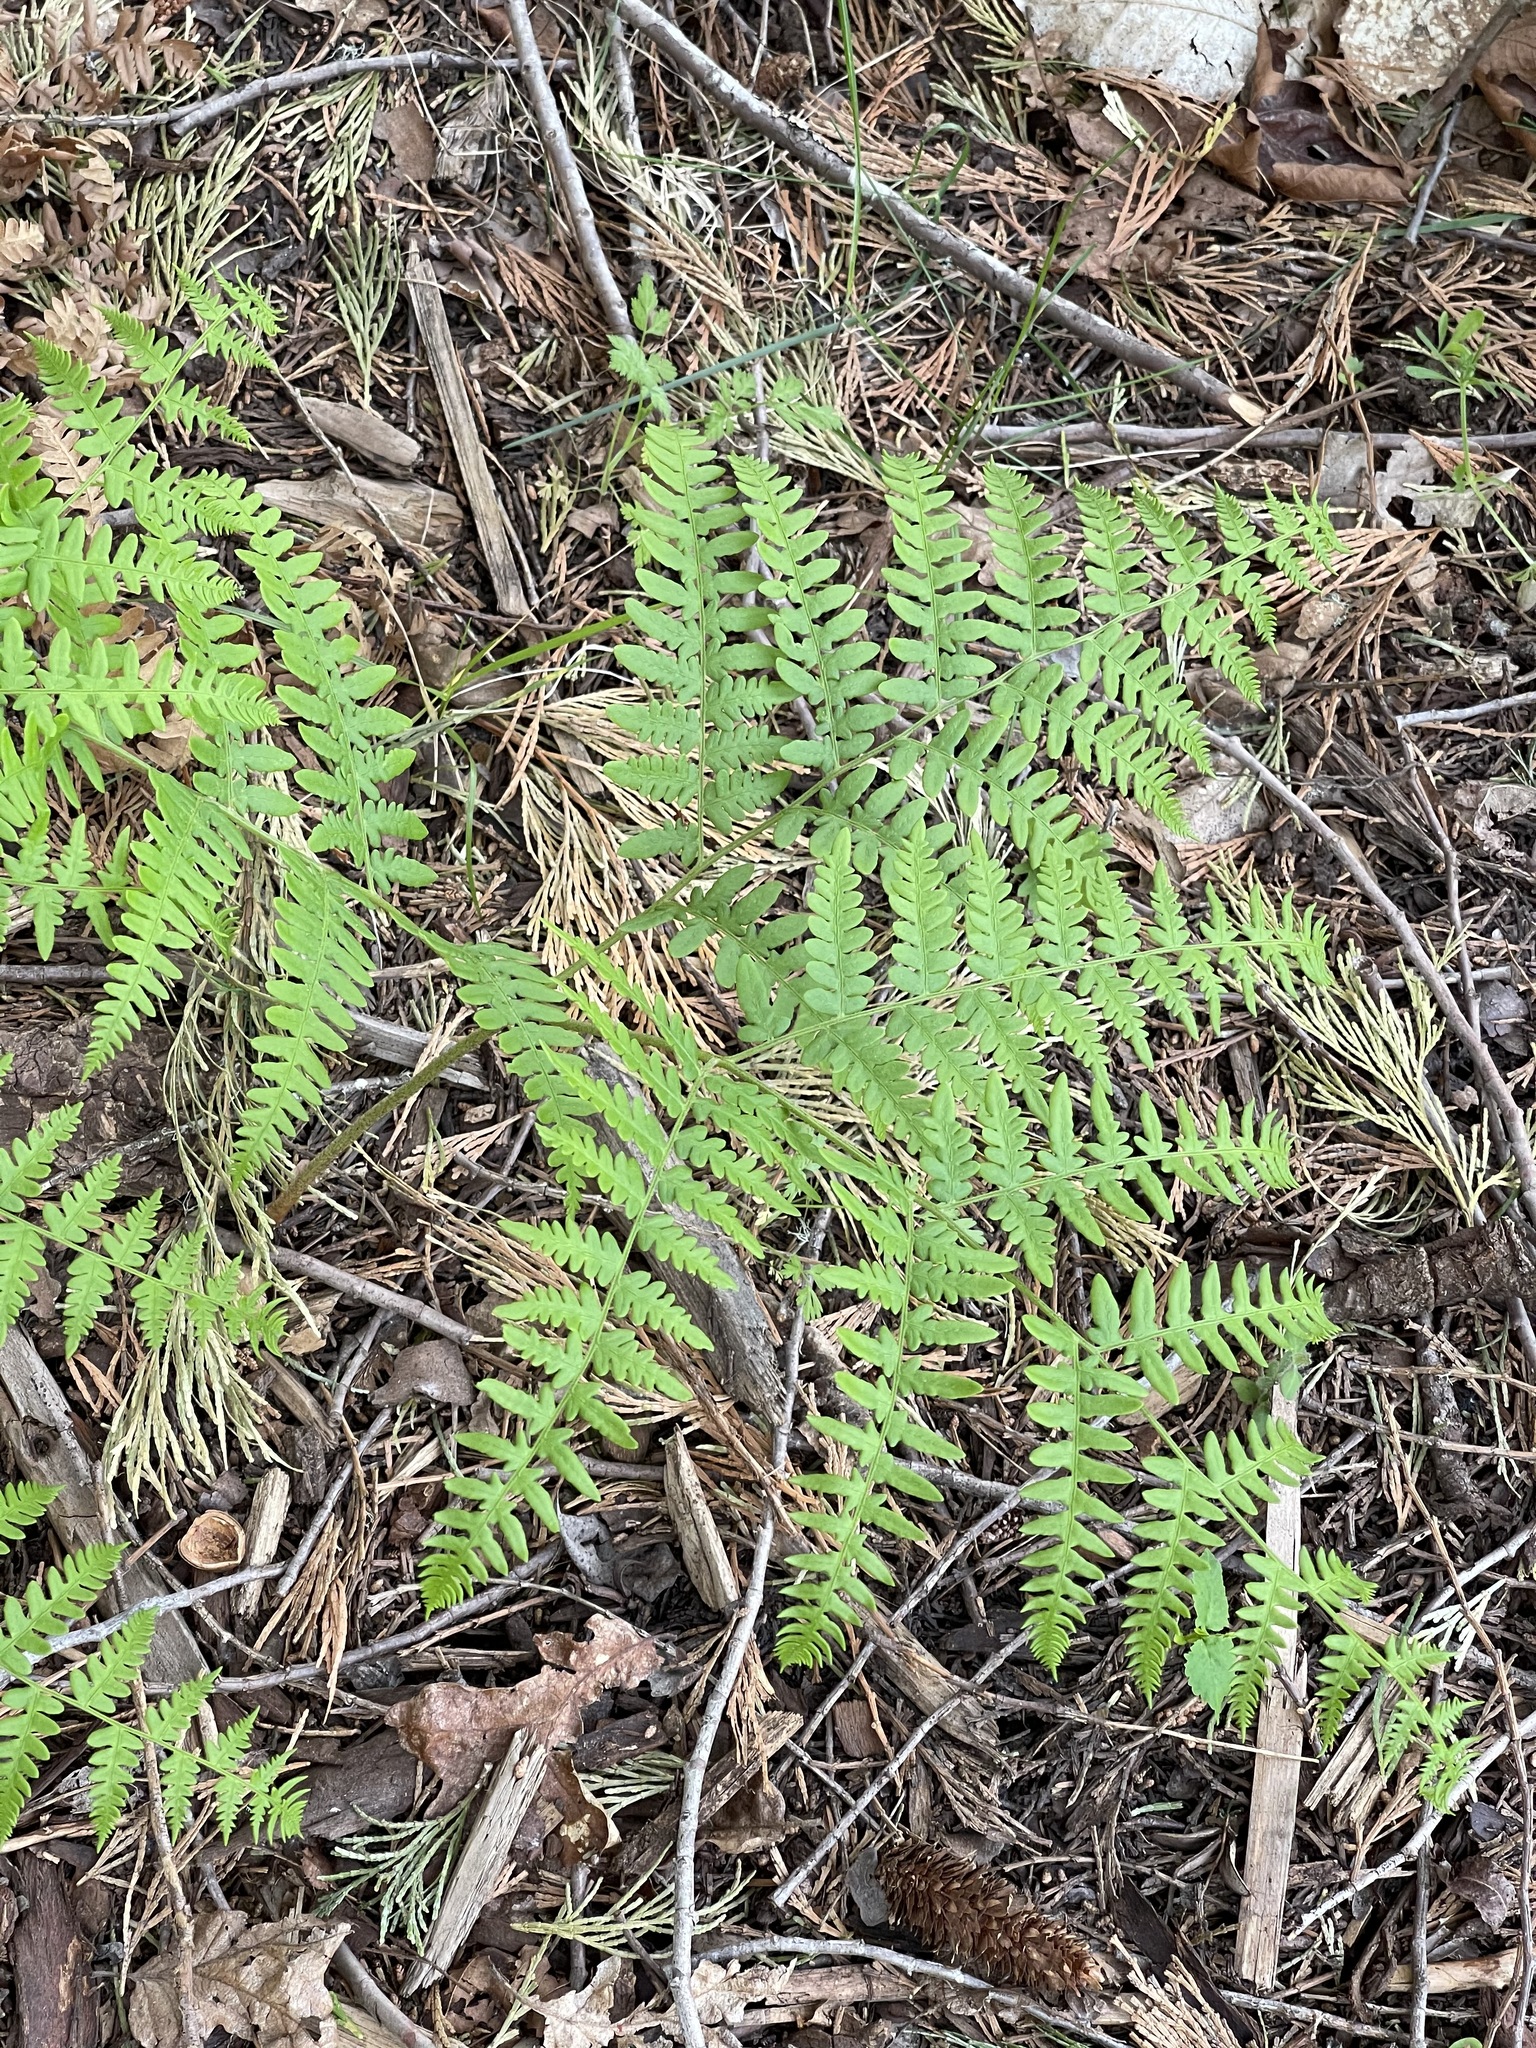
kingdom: Plantae
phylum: Tracheophyta
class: Polypodiopsida
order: Polypodiales
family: Dennstaedtiaceae
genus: Pteridium
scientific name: Pteridium aquilinum
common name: Bracken
